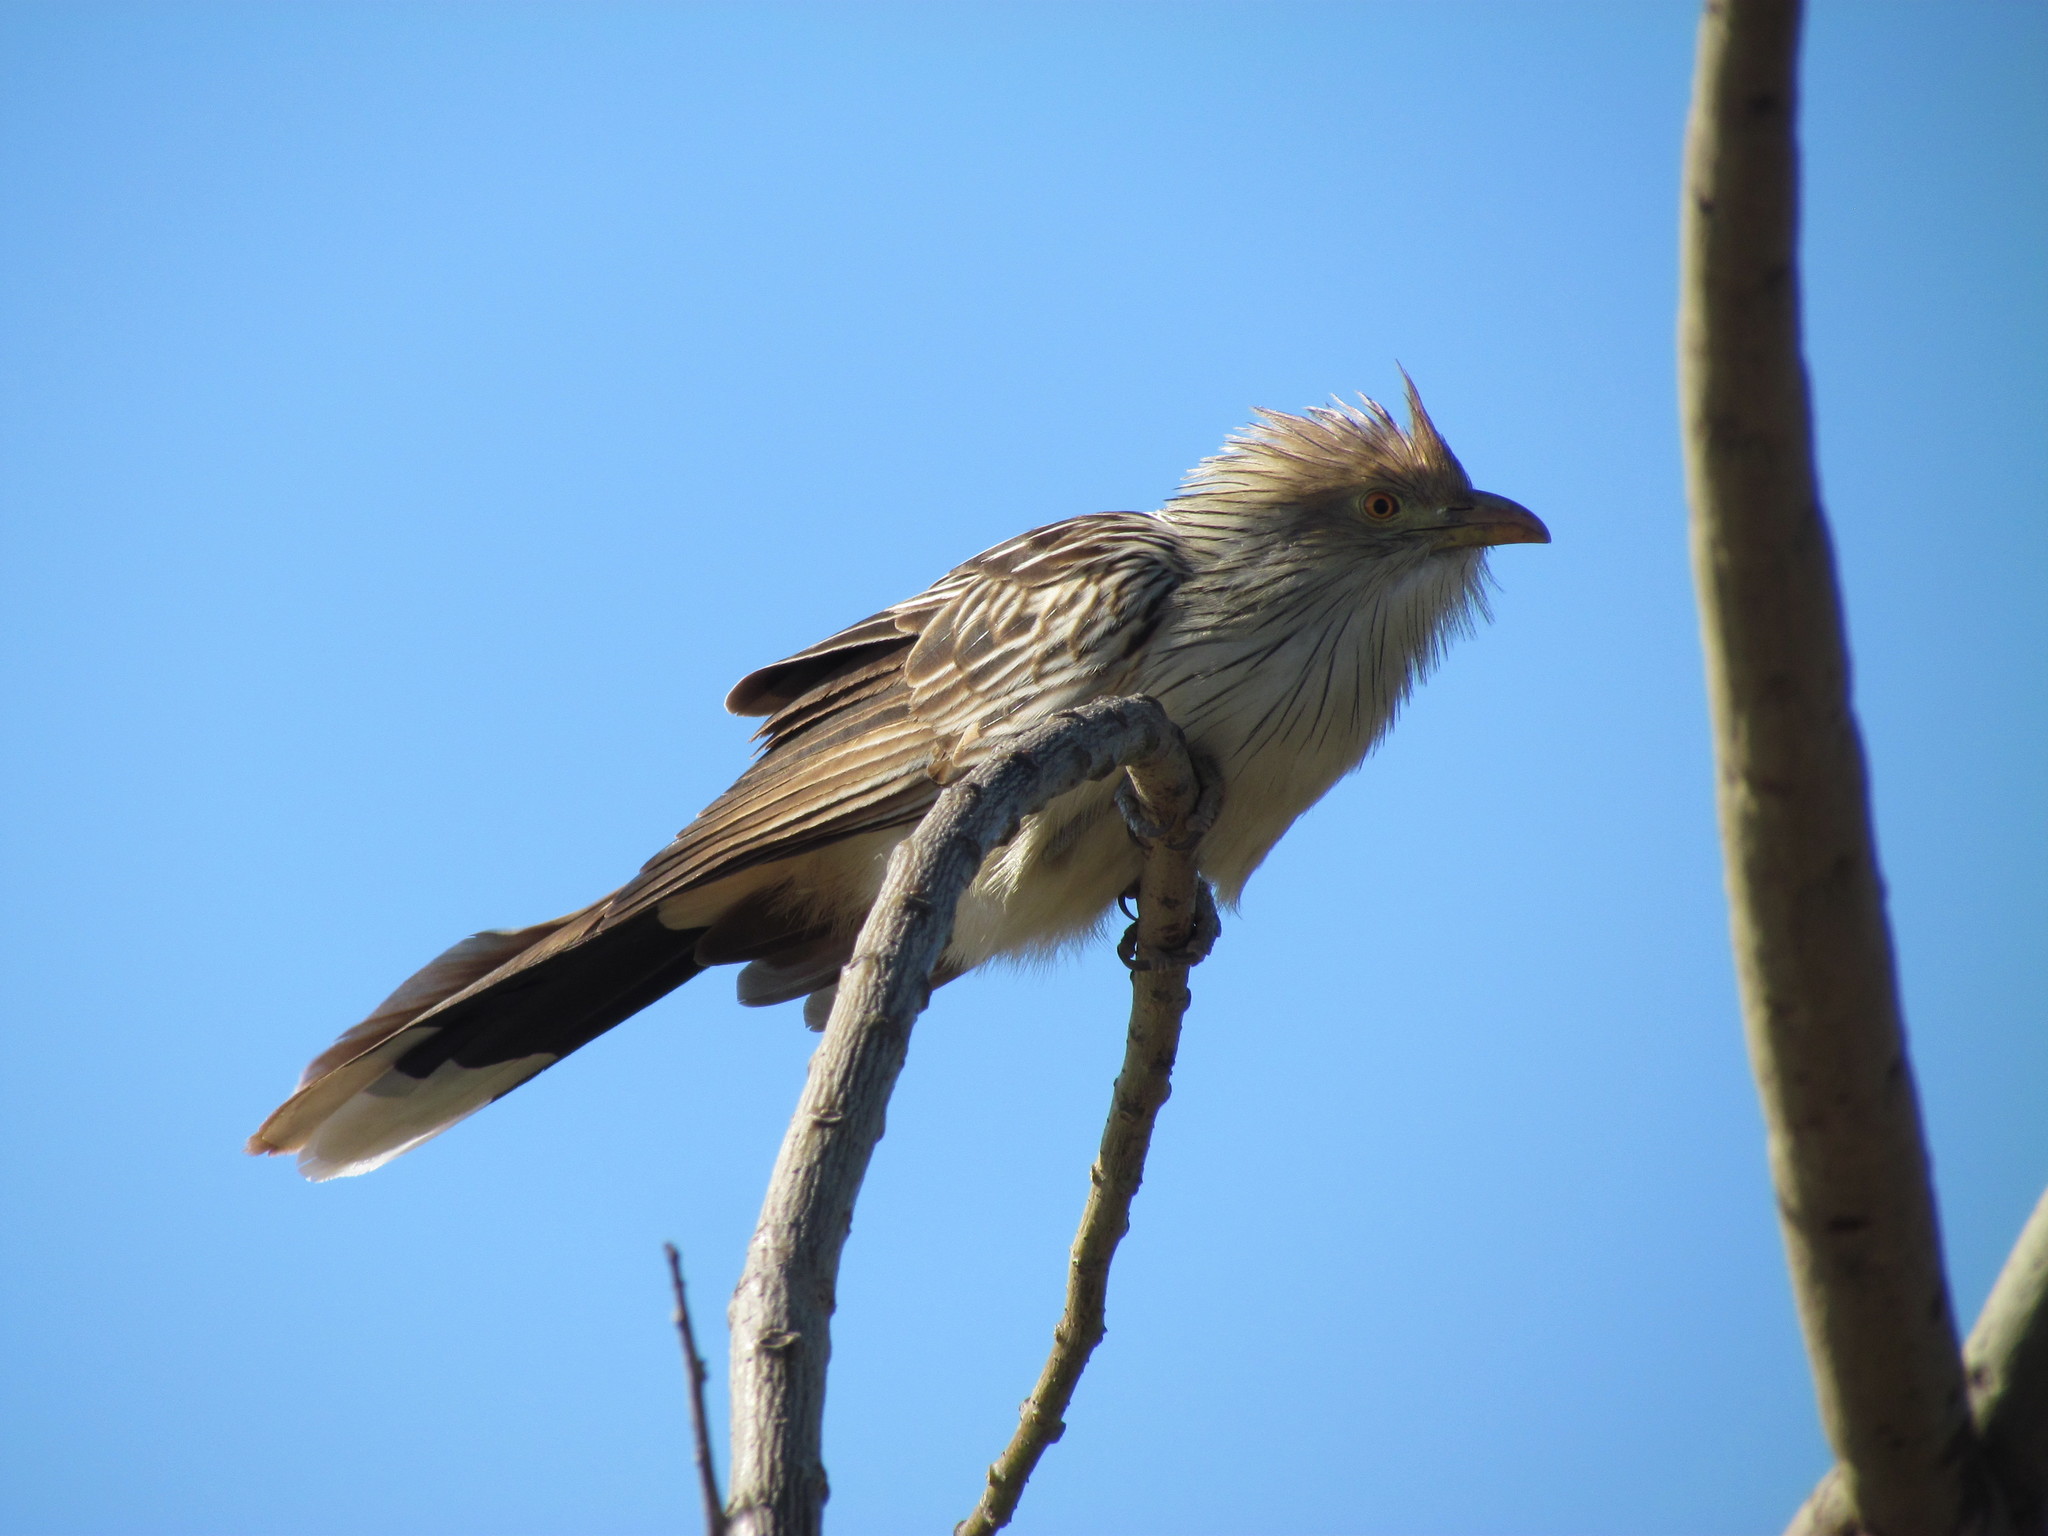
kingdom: Animalia
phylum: Chordata
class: Aves
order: Cuculiformes
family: Cuculidae
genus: Guira
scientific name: Guira guira
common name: Guira cuckoo
